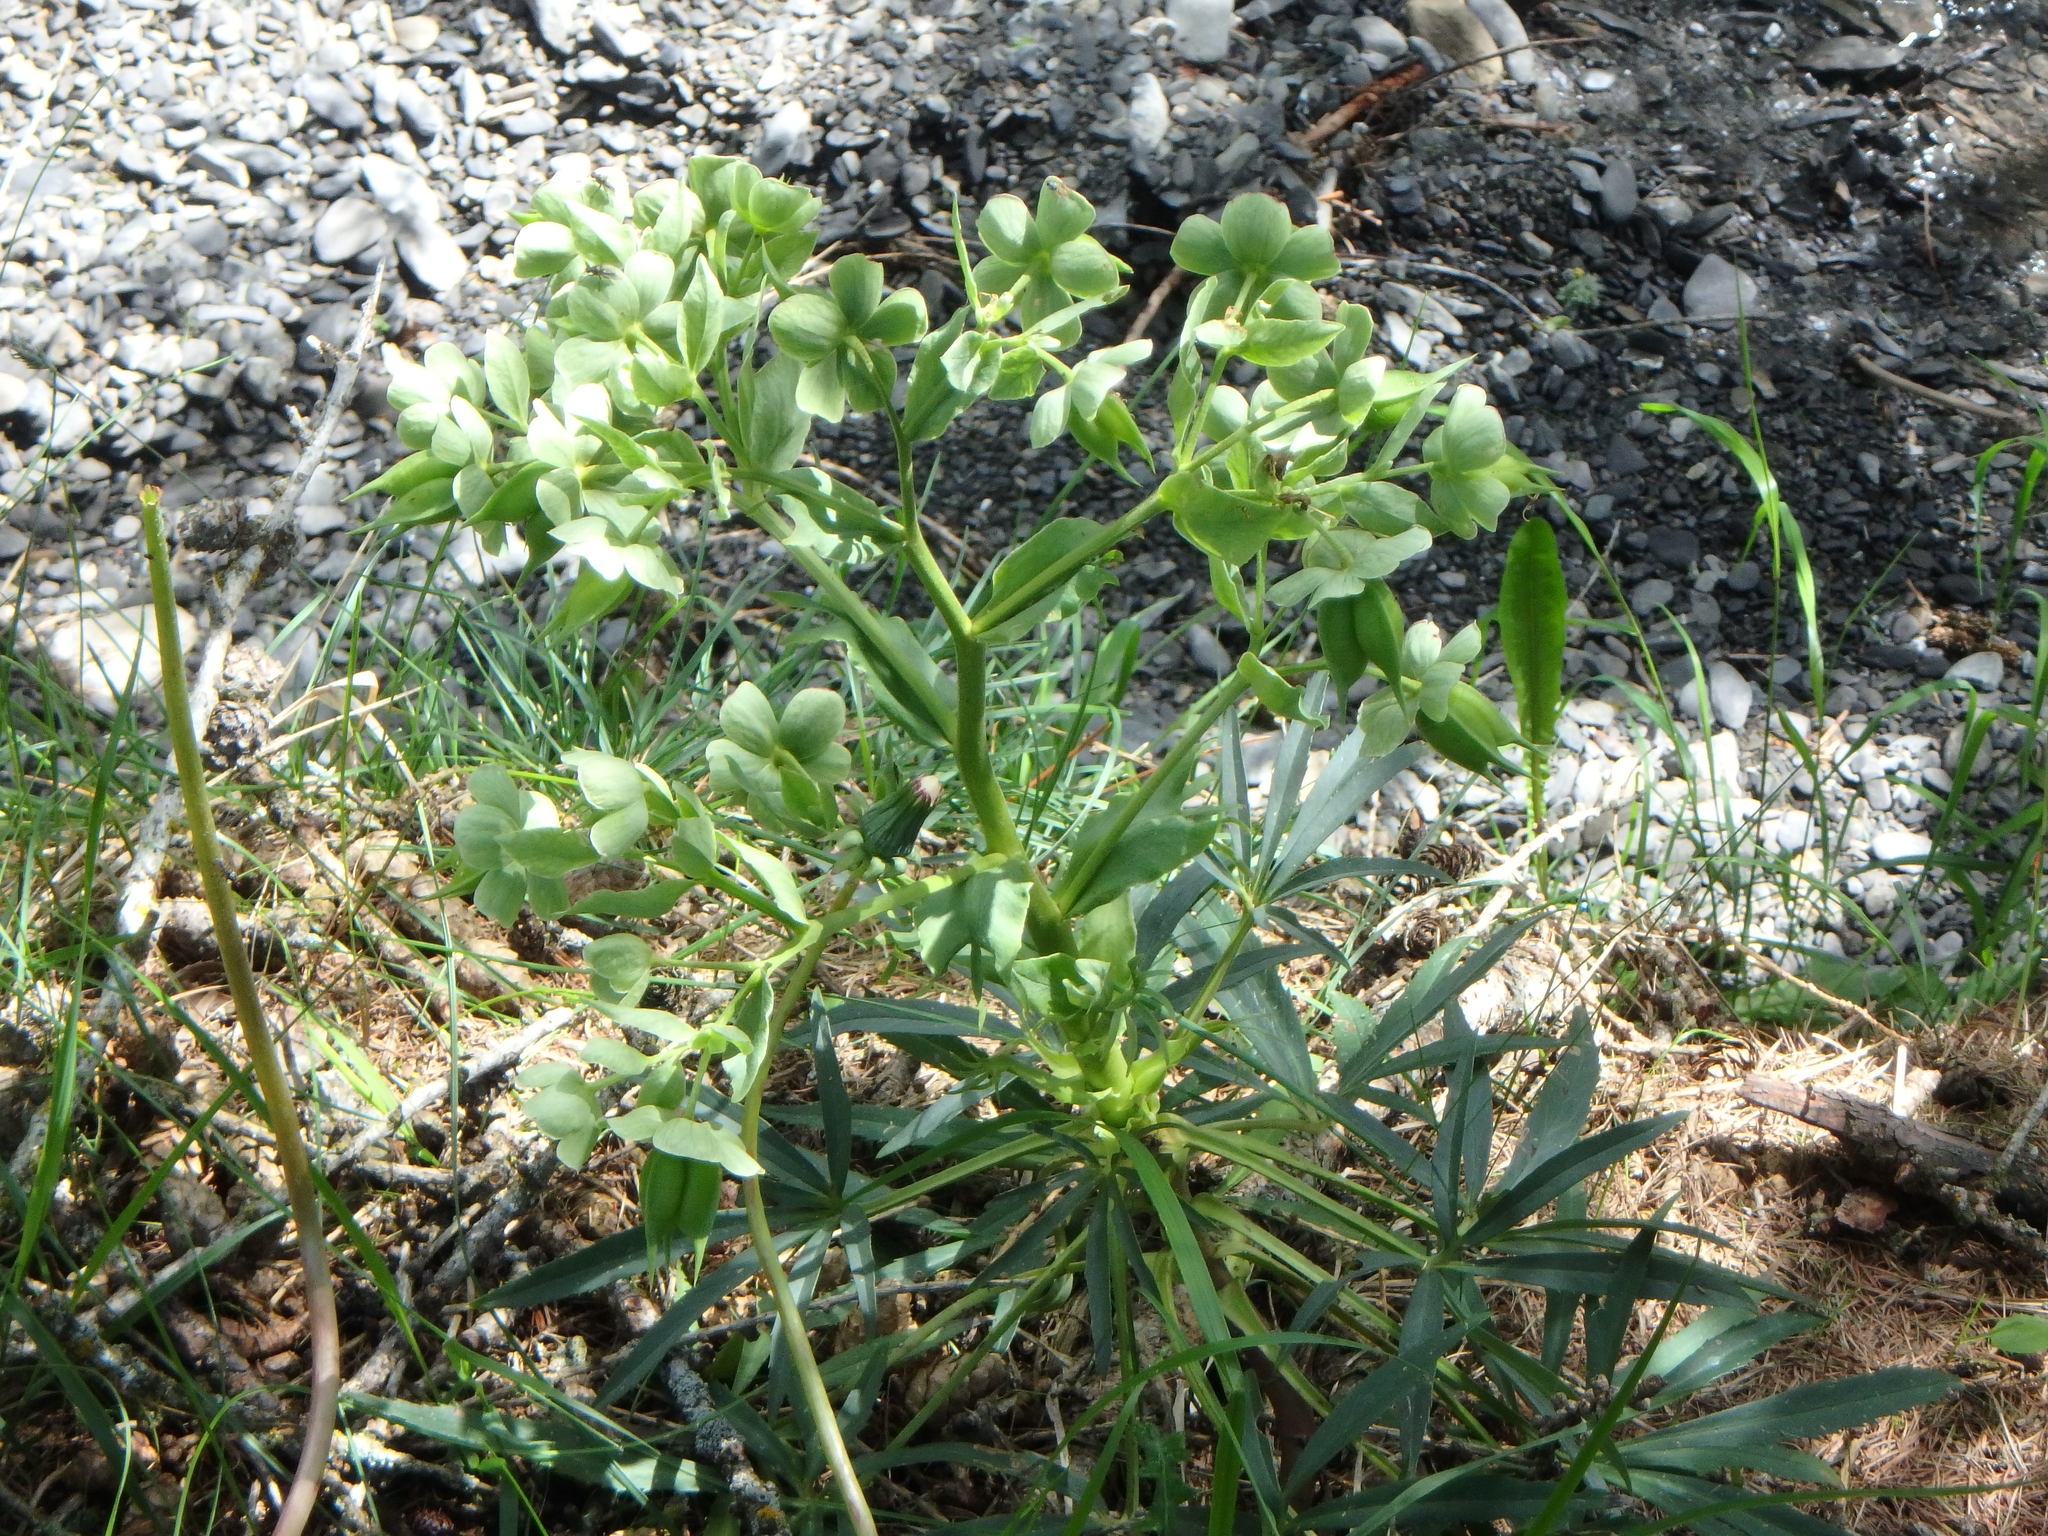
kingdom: Plantae
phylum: Tracheophyta
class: Magnoliopsida
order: Ranunculales
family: Ranunculaceae
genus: Helleborus
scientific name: Helleborus foetidus
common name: Stinking hellebore
